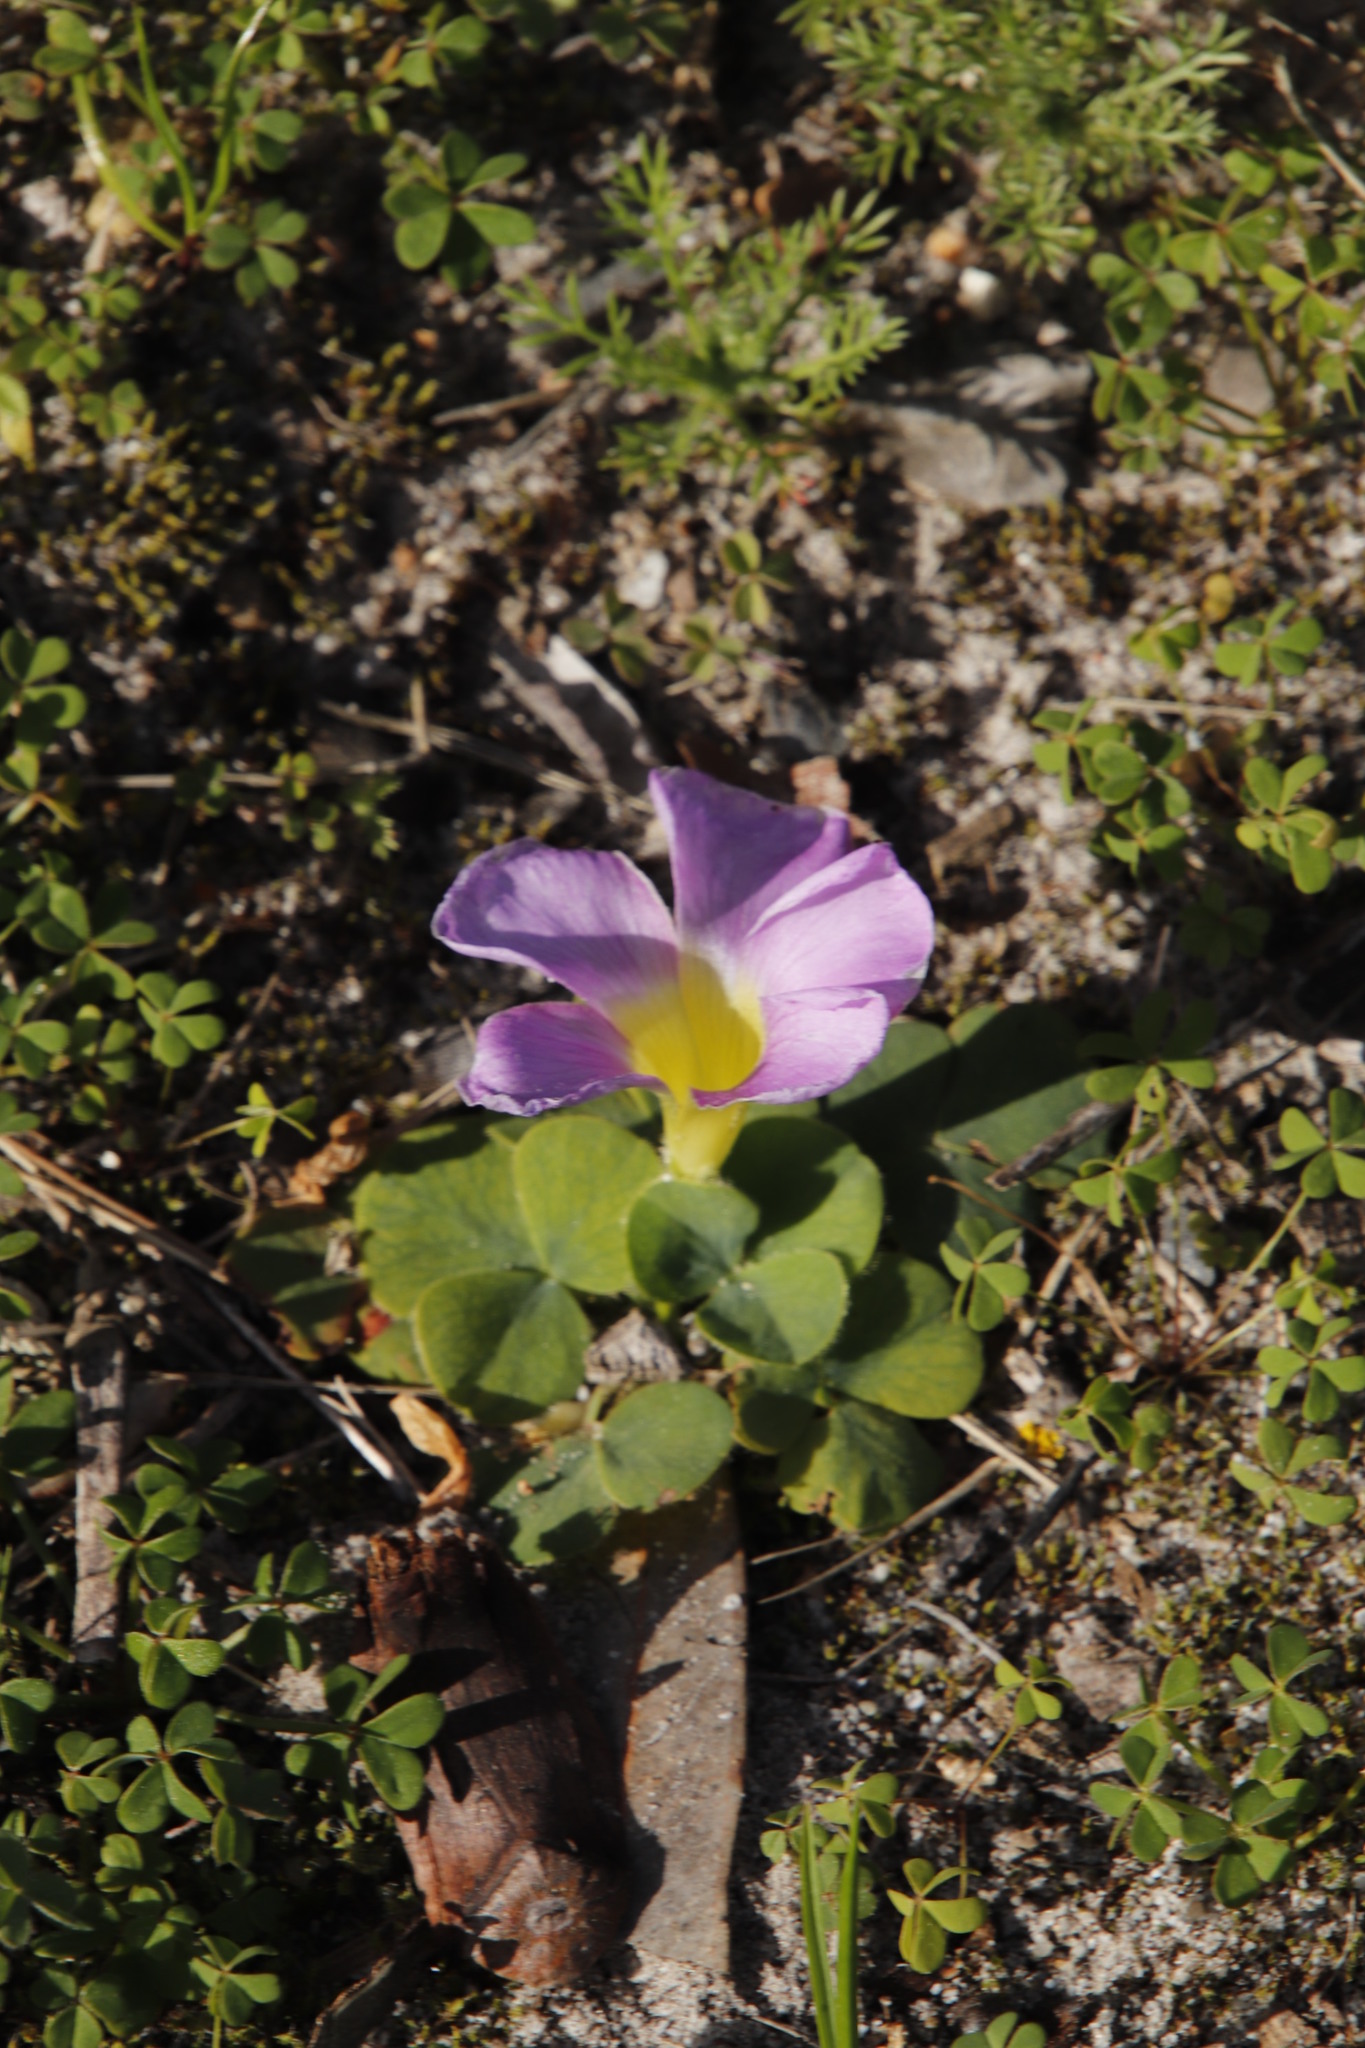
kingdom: Plantae
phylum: Tracheophyta
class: Magnoliopsida
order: Oxalidales
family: Oxalidaceae
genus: Oxalis
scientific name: Oxalis purpurea
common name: Purple woodsorrel
